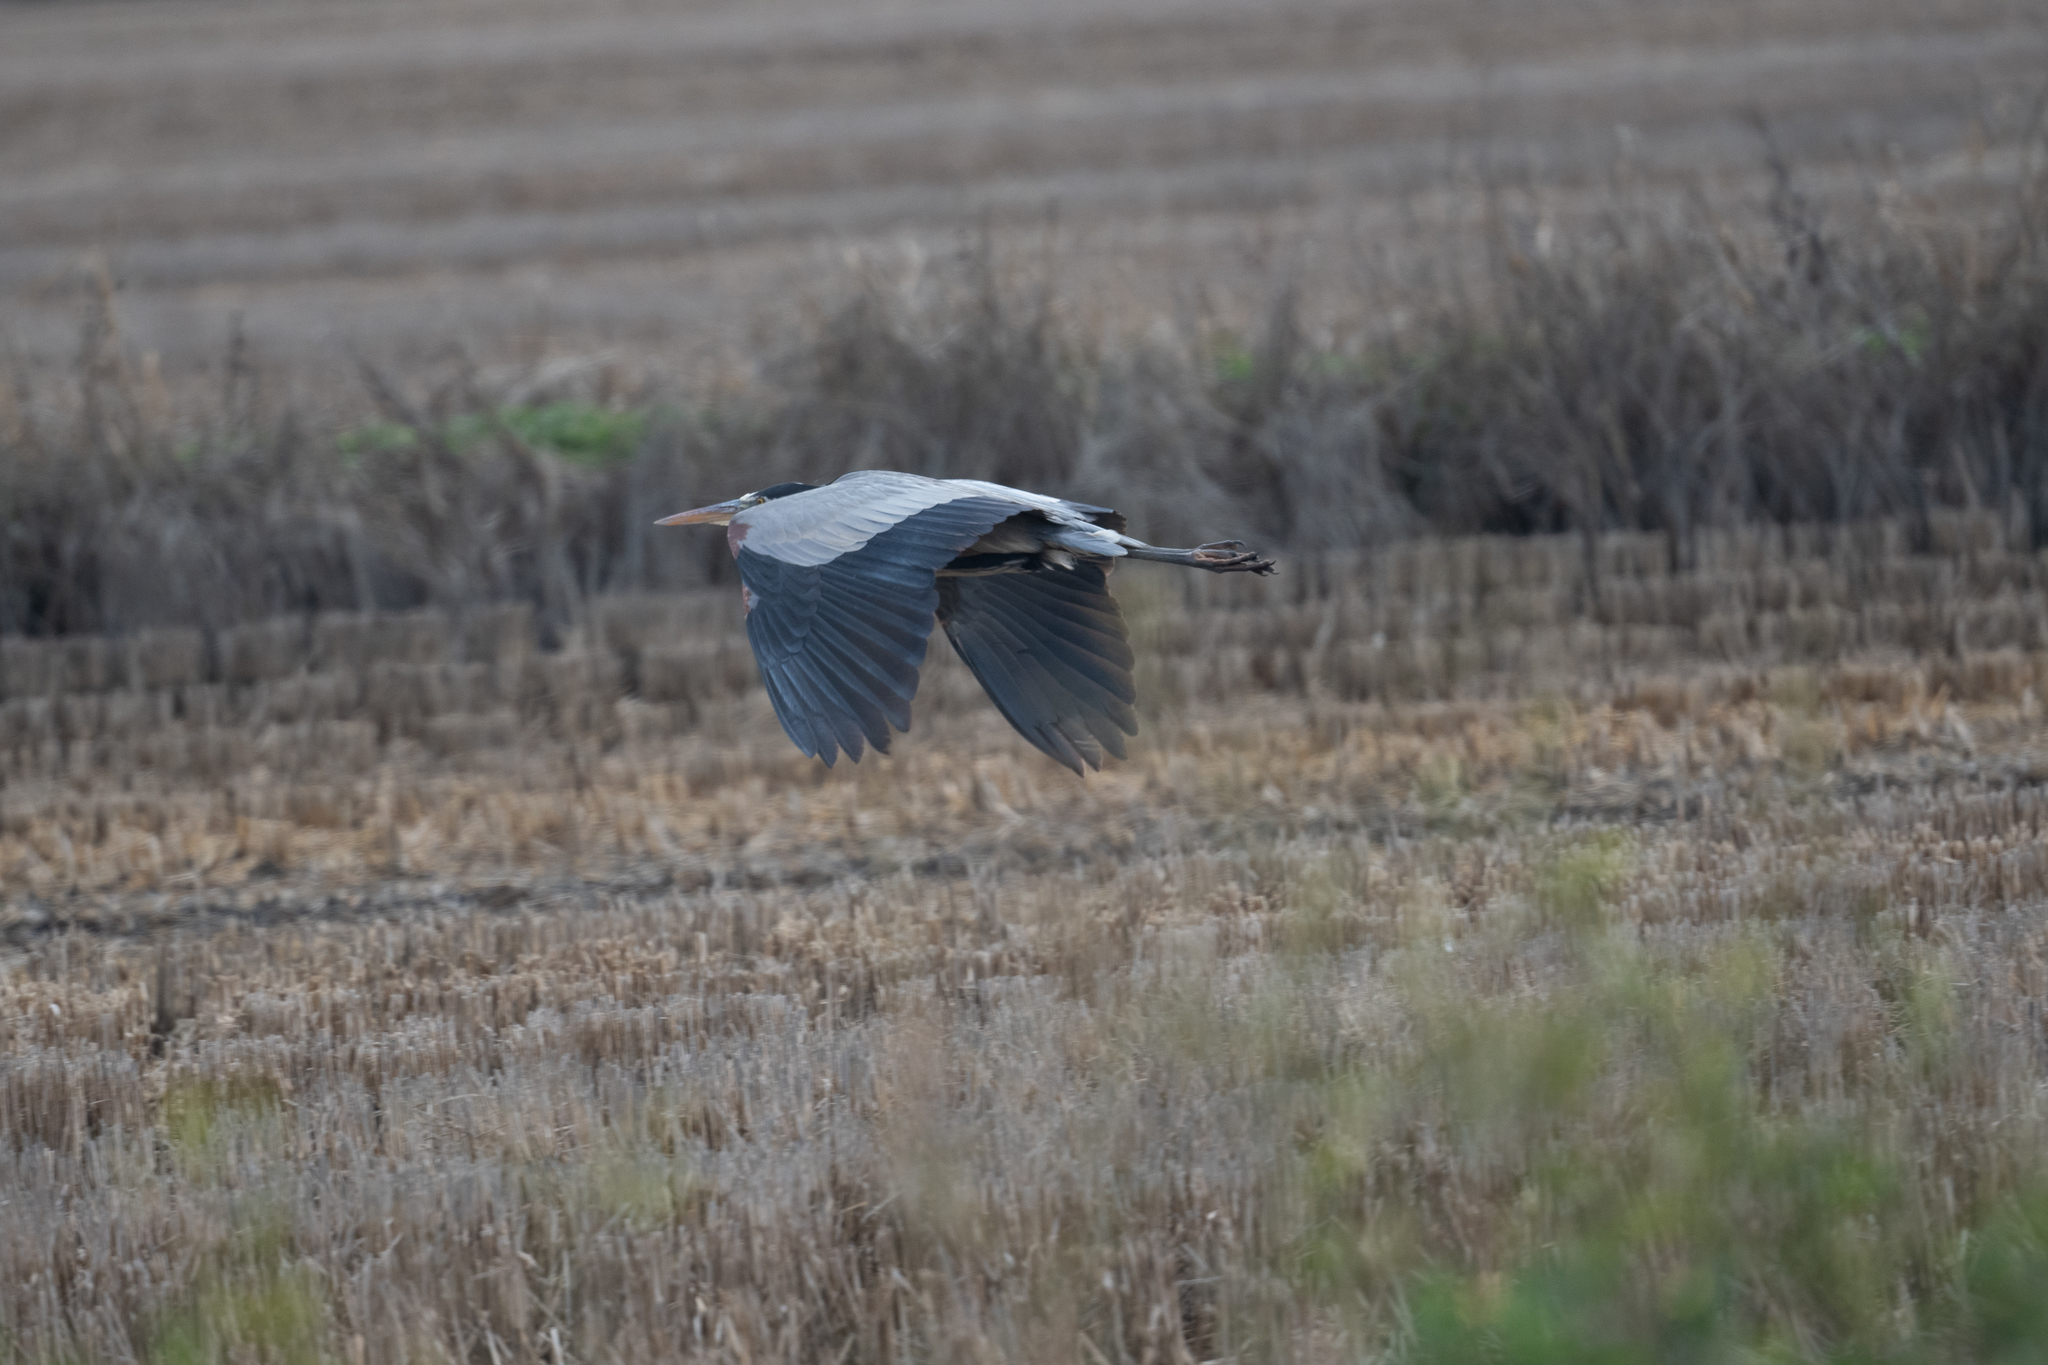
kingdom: Animalia
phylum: Chordata
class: Aves
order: Pelecaniformes
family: Ardeidae
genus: Ardea
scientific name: Ardea herodias
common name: Great blue heron
